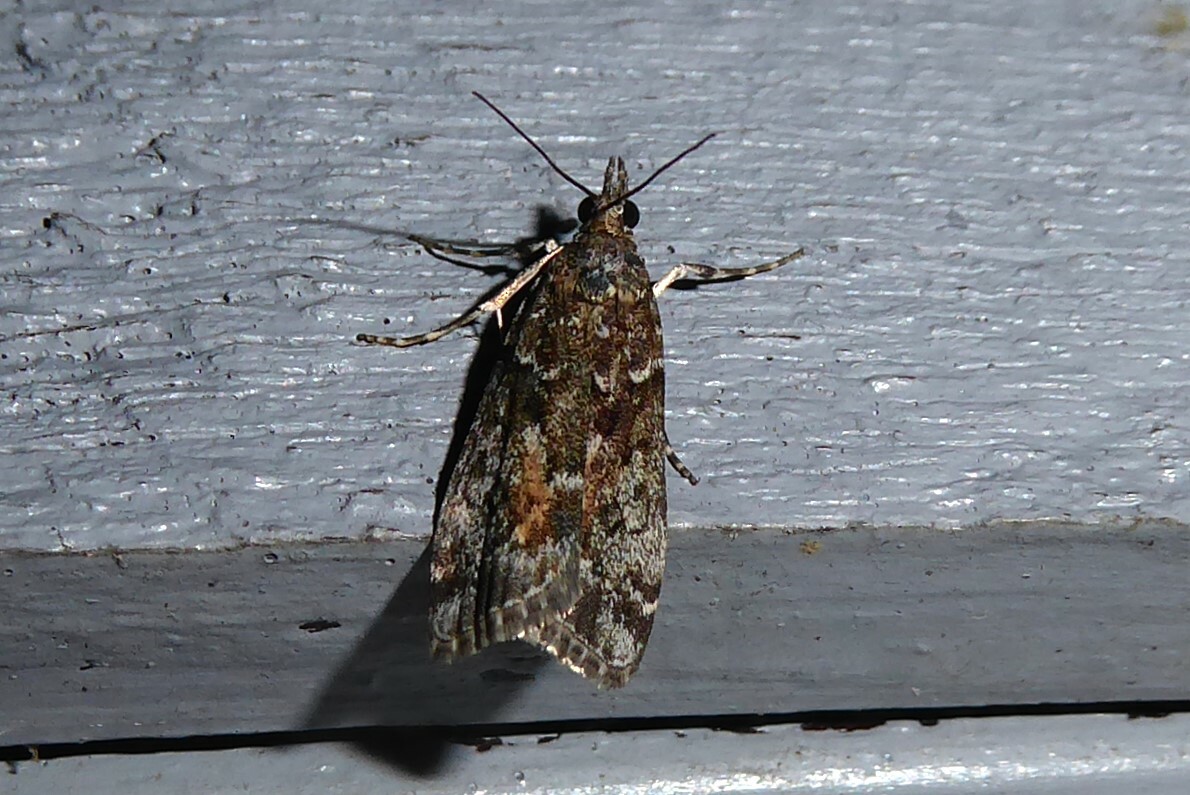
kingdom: Animalia
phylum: Arthropoda
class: Insecta
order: Lepidoptera
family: Crambidae
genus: Eudonia
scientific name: Eudonia submarginalis
